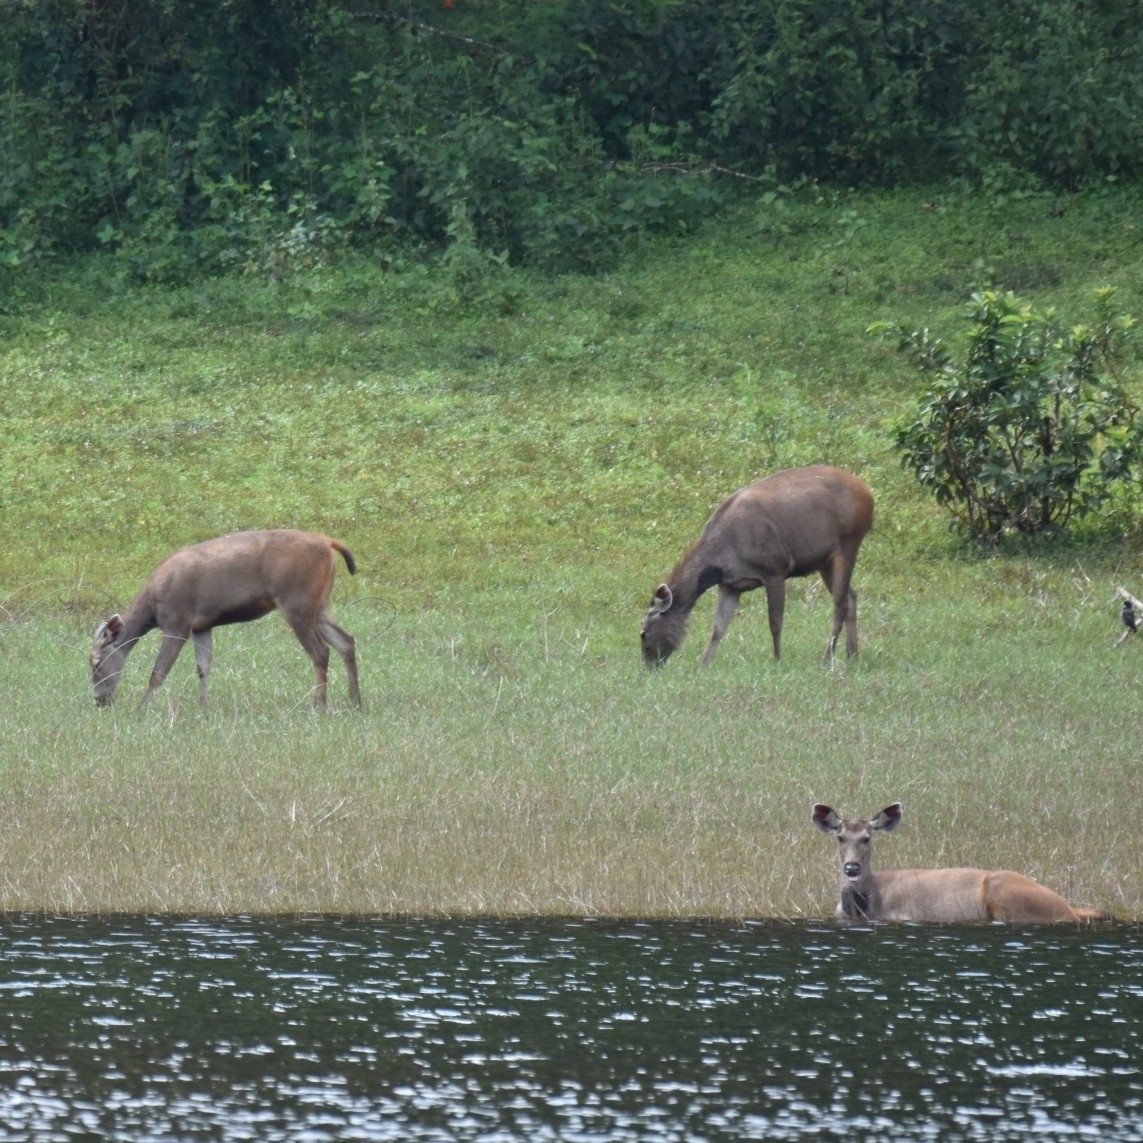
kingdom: Animalia
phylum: Chordata
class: Mammalia
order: Artiodactyla
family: Cervidae
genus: Rusa
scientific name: Rusa unicolor
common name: Sambar
